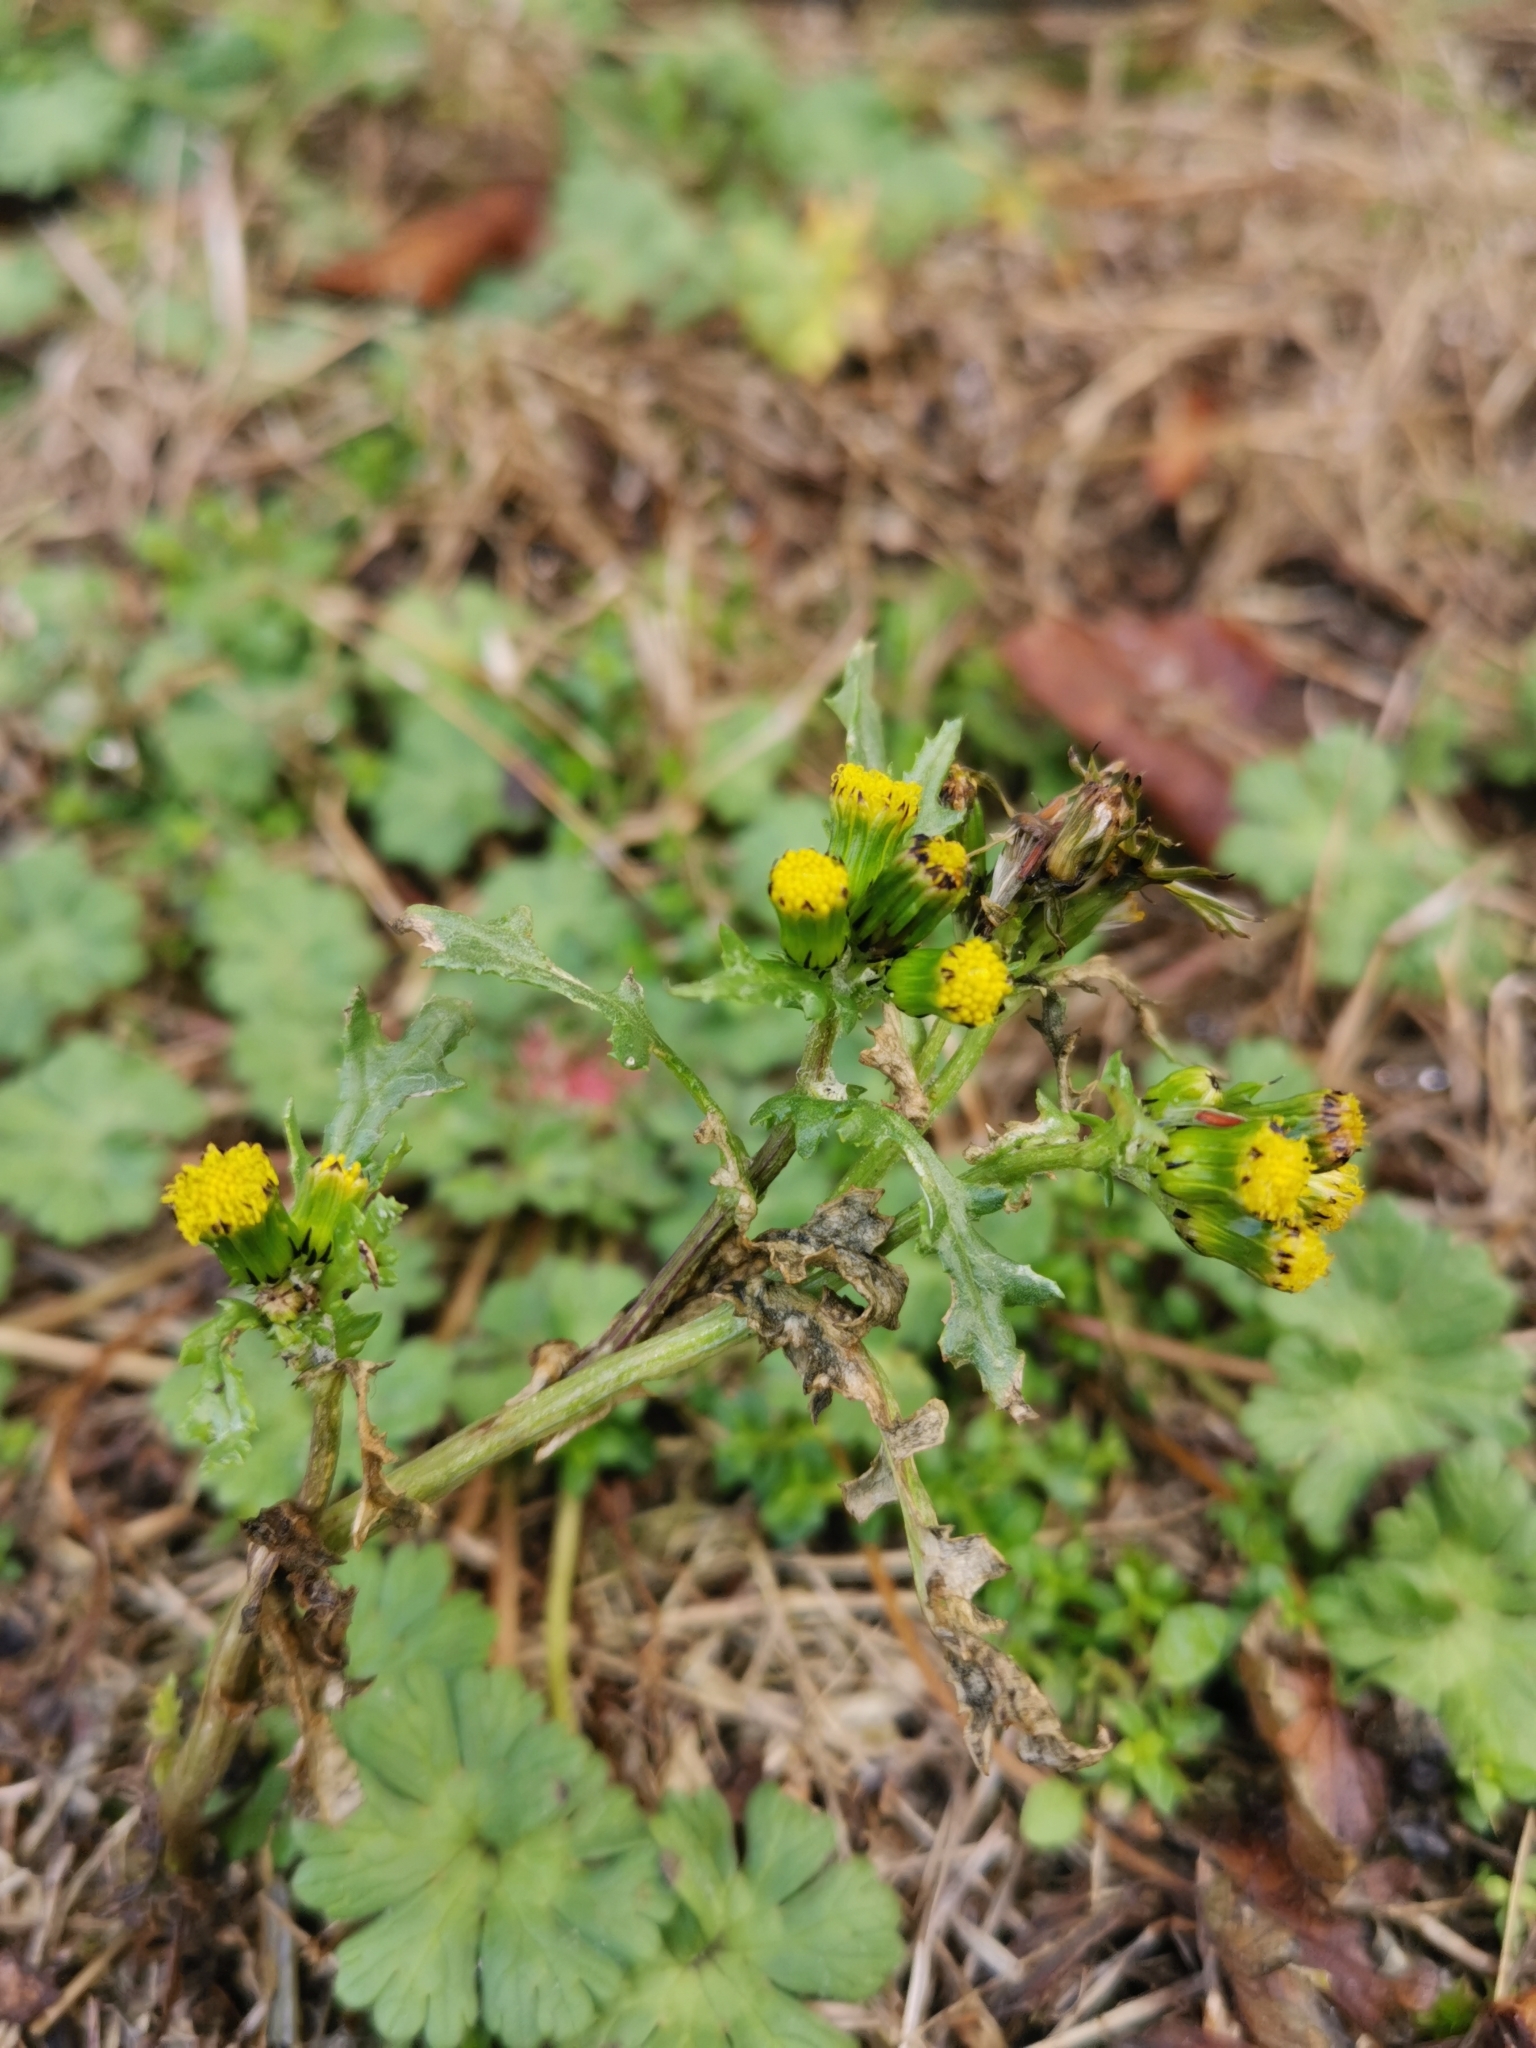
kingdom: Plantae
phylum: Tracheophyta
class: Magnoliopsida
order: Asterales
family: Asteraceae
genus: Senecio
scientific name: Senecio vulgaris
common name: Old-man-in-the-spring
